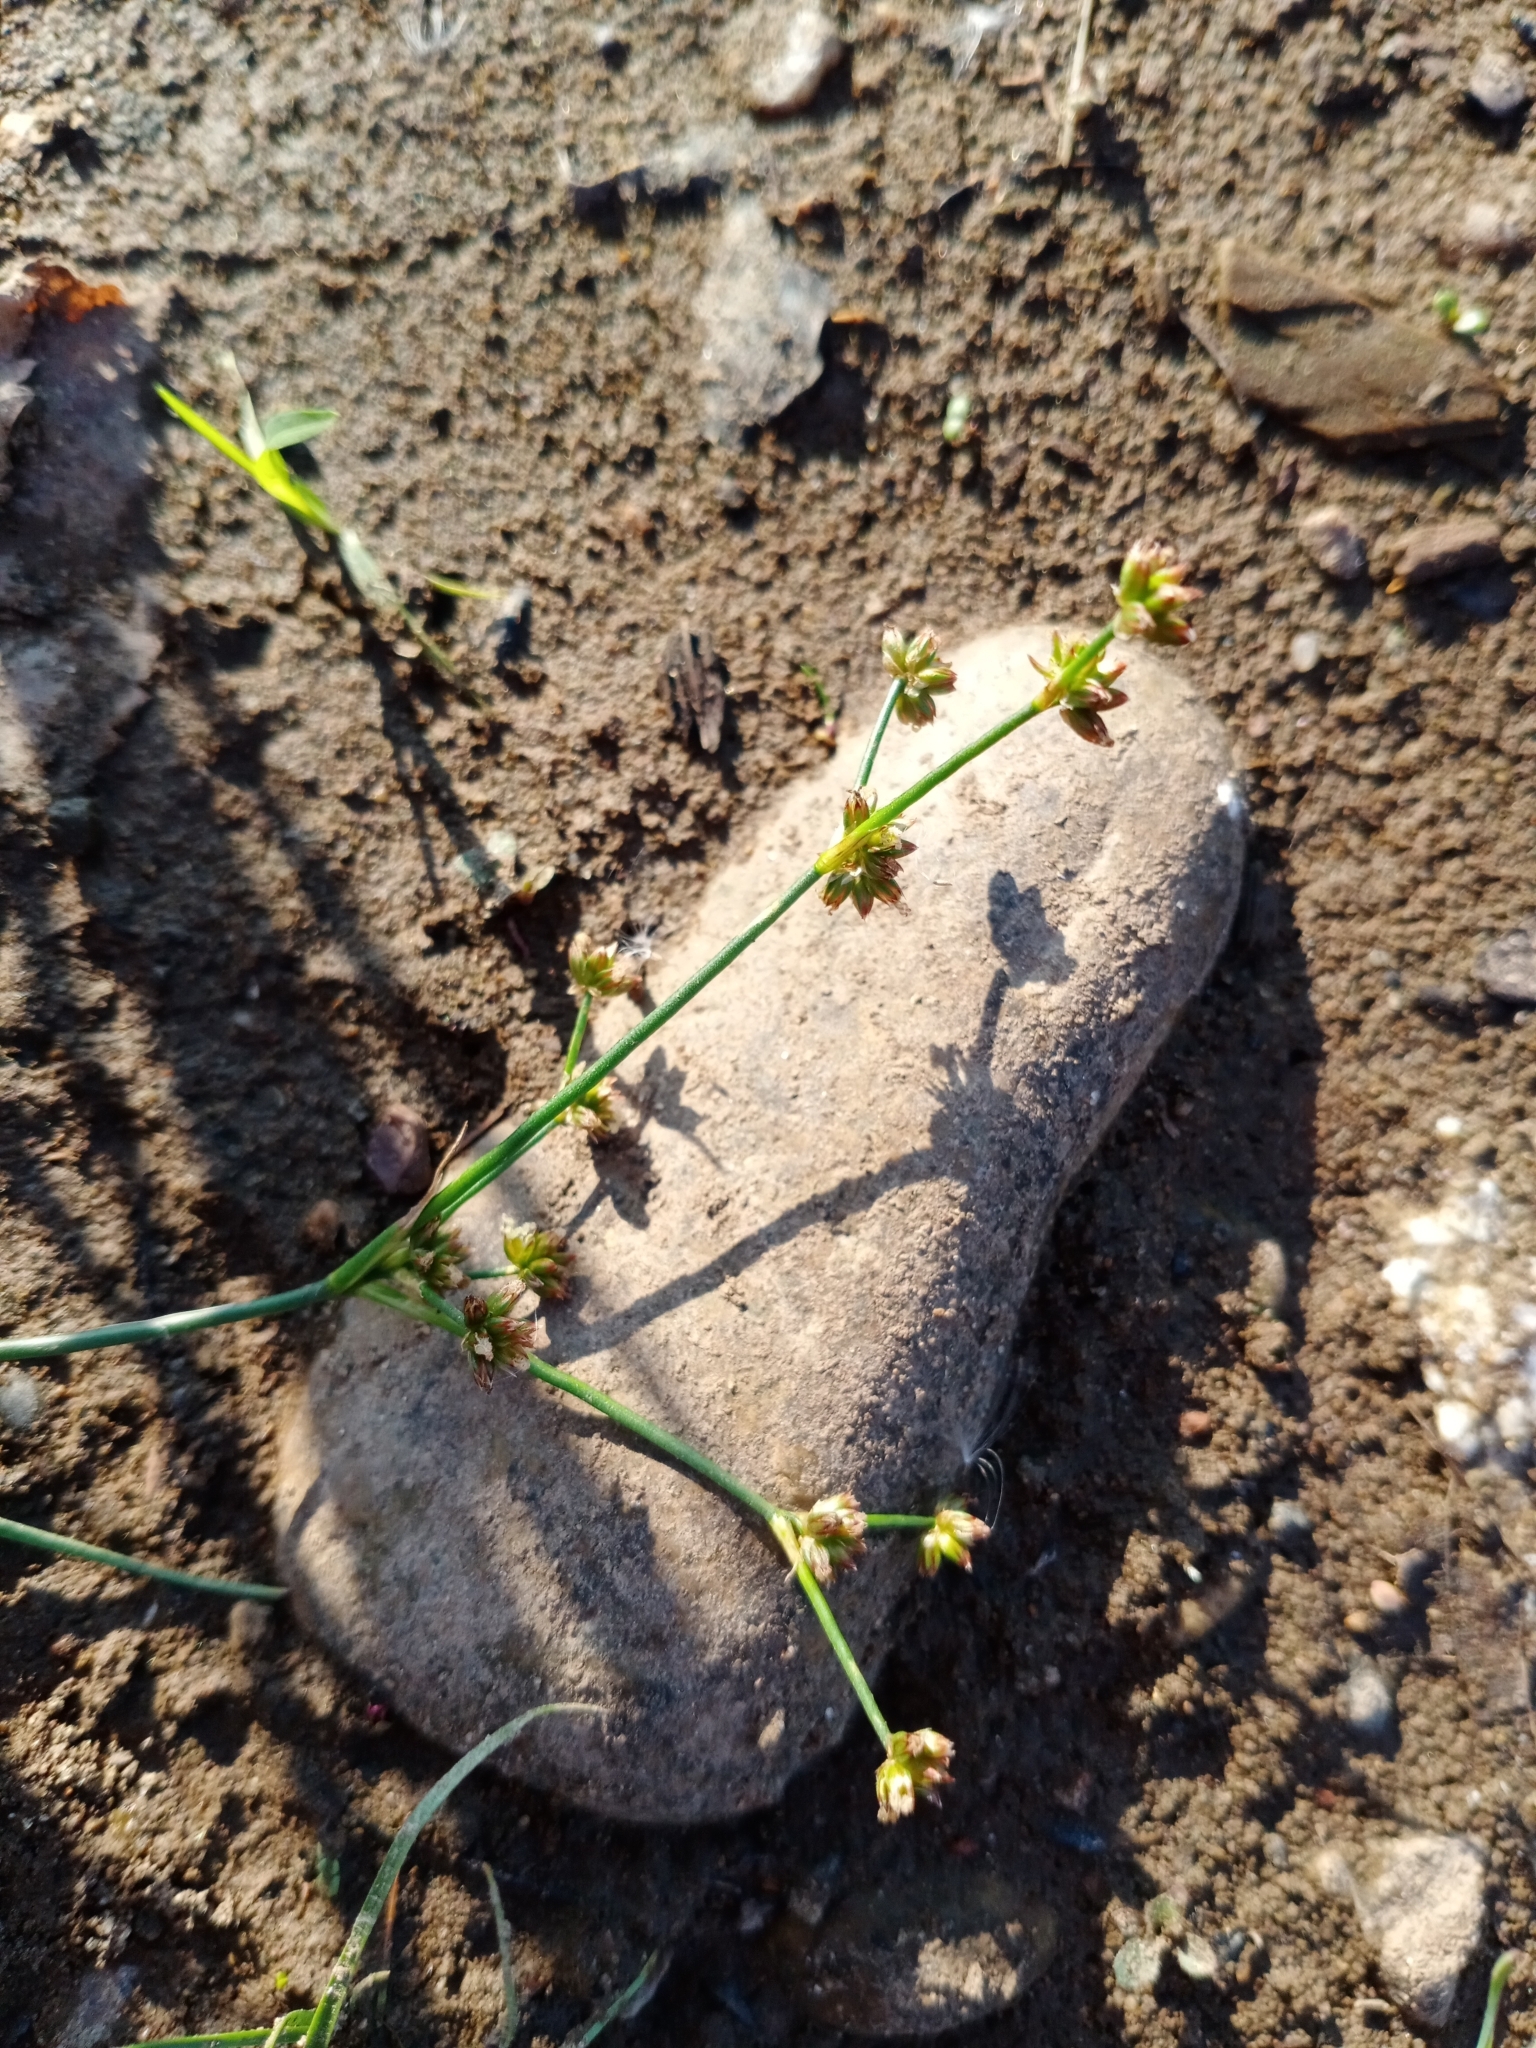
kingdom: Plantae
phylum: Tracheophyta
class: Liliopsida
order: Poales
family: Juncaceae
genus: Juncus
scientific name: Juncus articulatus
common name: Jointed rush
